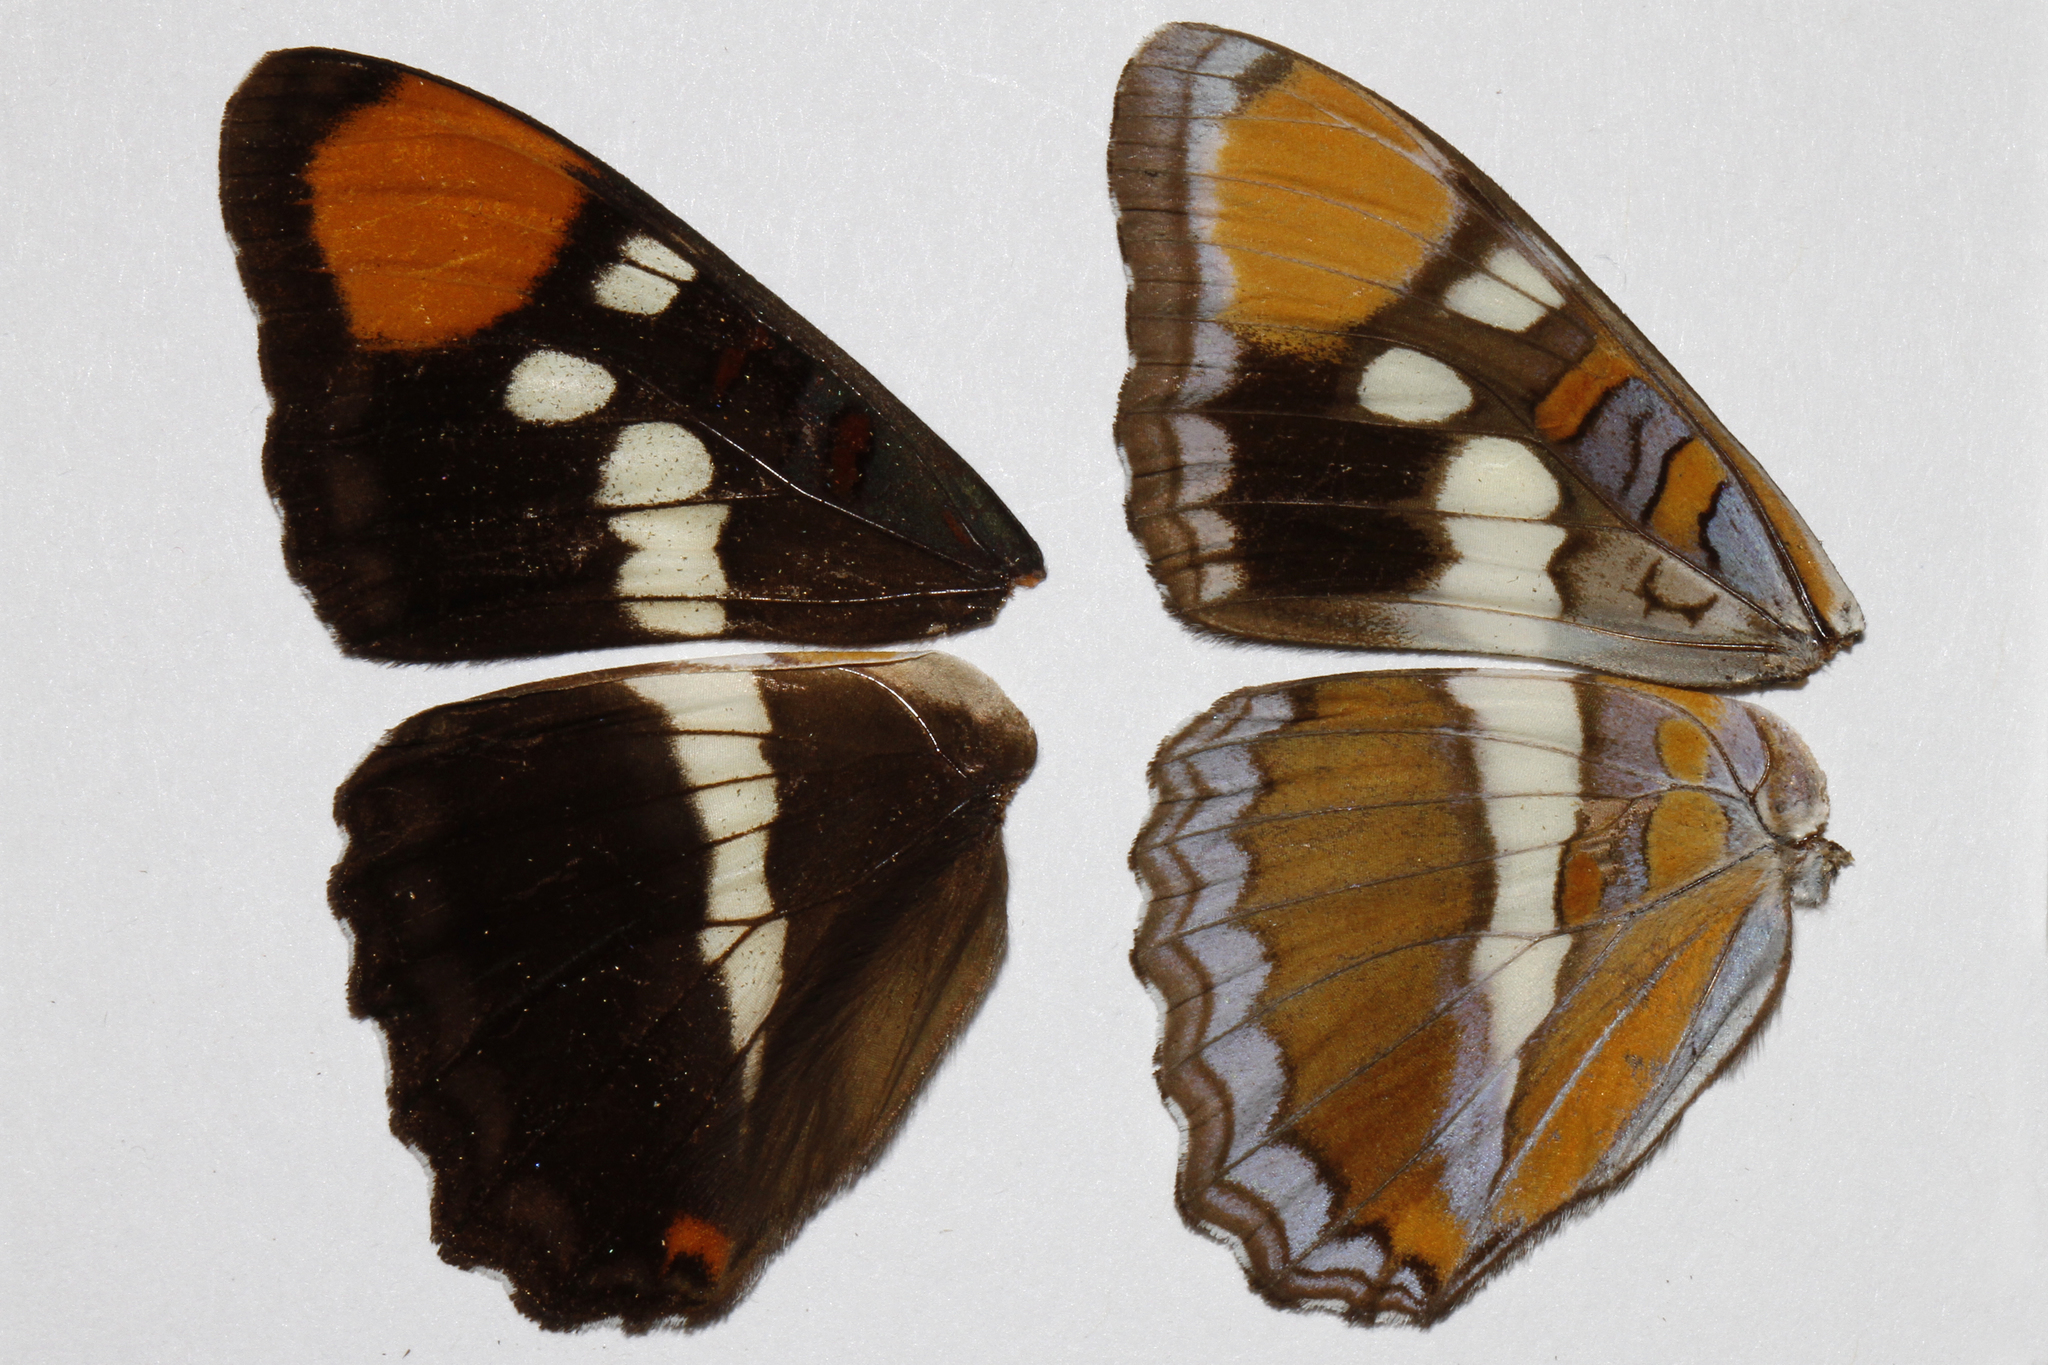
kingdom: Animalia
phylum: Arthropoda
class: Insecta
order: Lepidoptera
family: Nymphalidae
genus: Limenitis
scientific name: Limenitis bredowii
